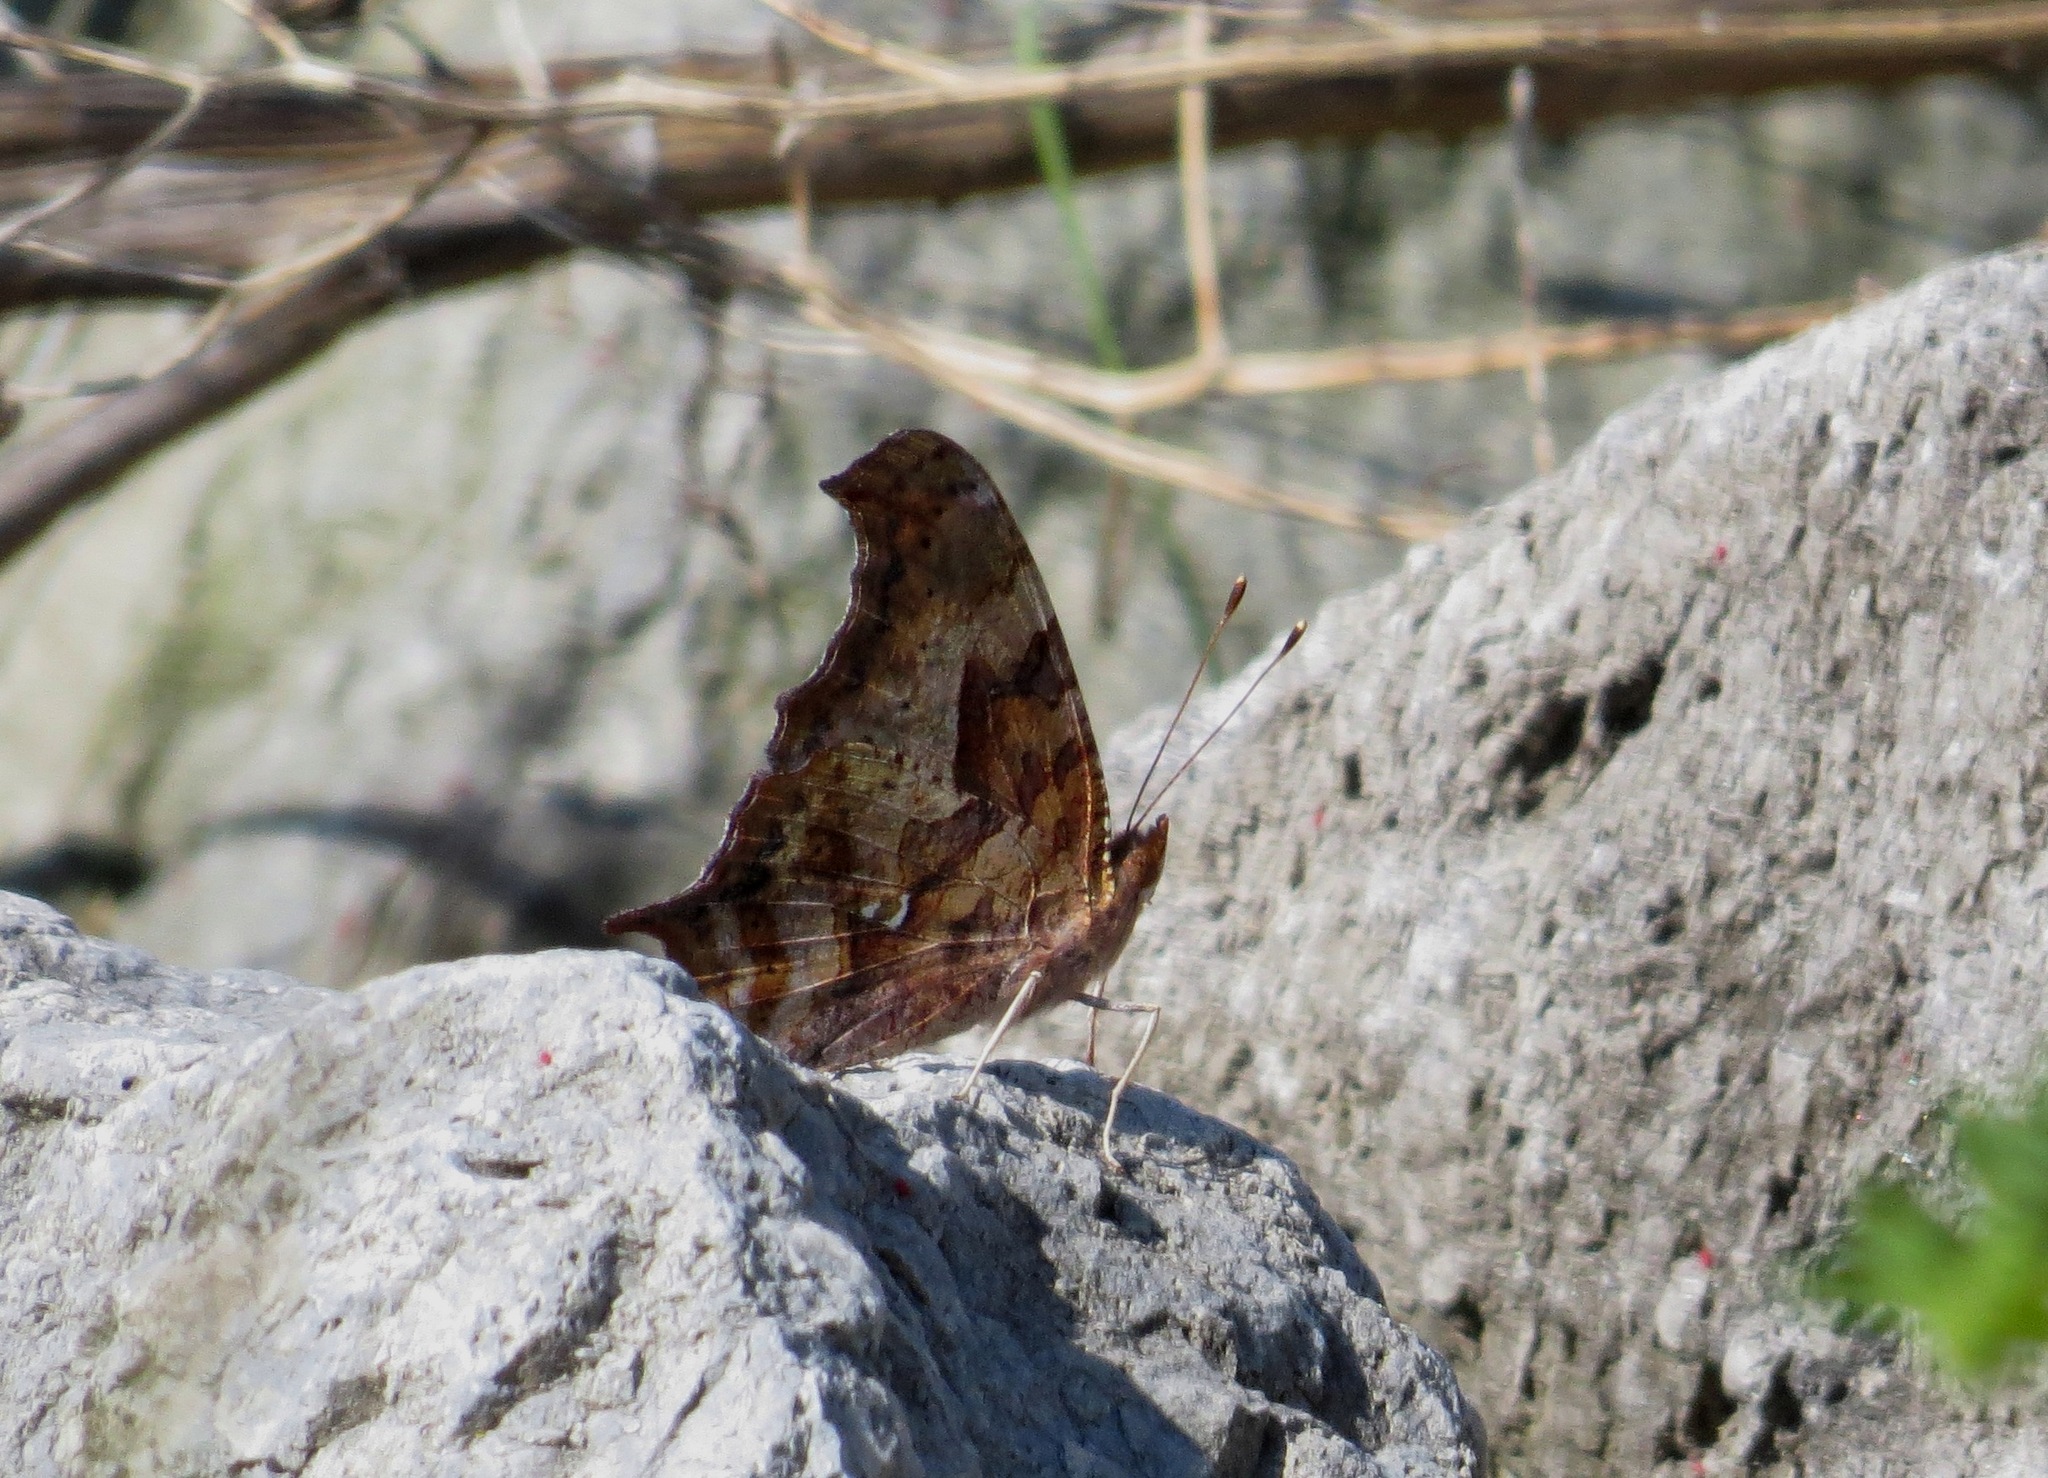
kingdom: Animalia
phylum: Arthropoda
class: Insecta
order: Lepidoptera
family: Nymphalidae
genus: Polygonia
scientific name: Polygonia interrogationis
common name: Question mark
